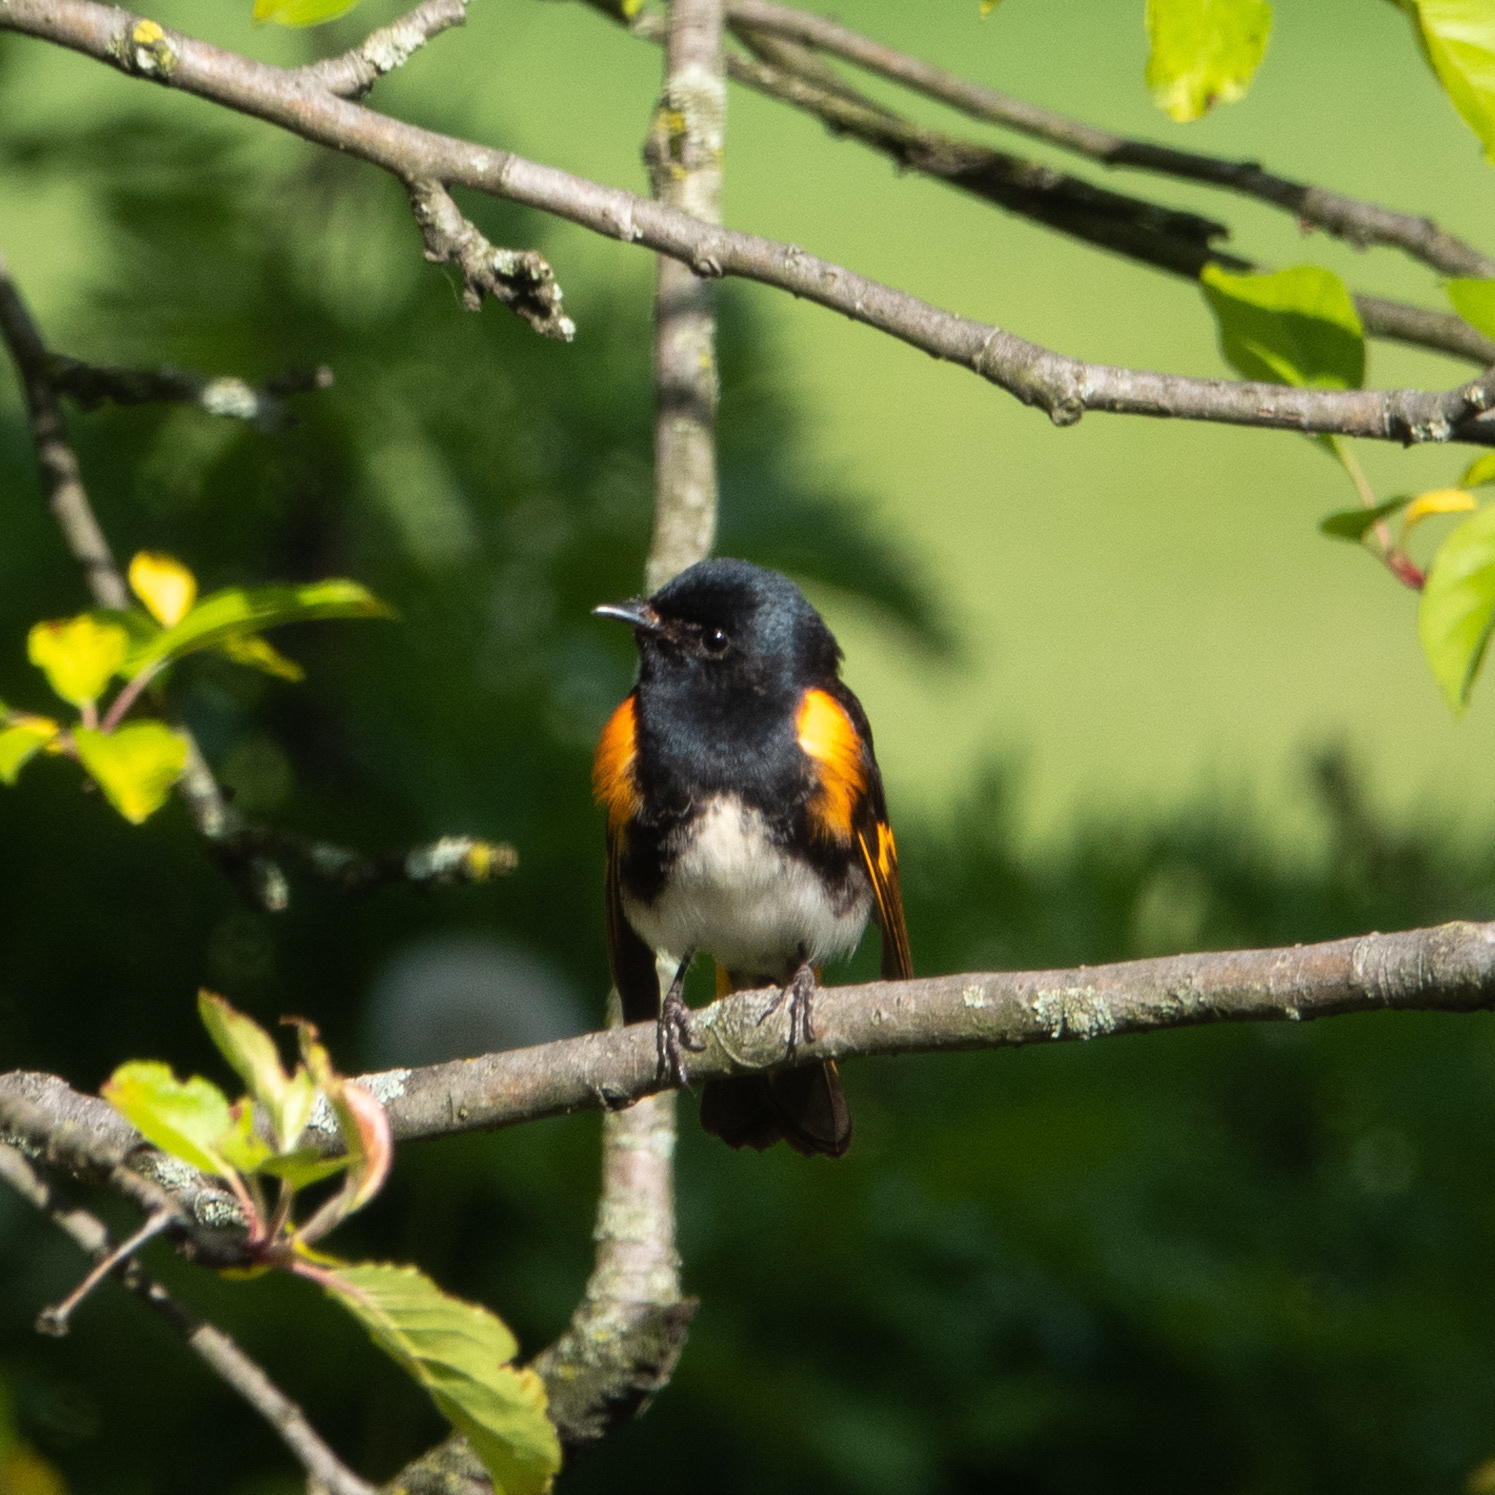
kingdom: Animalia
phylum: Chordata
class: Aves
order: Passeriformes
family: Parulidae
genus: Setophaga
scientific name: Setophaga ruticilla
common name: American redstart
